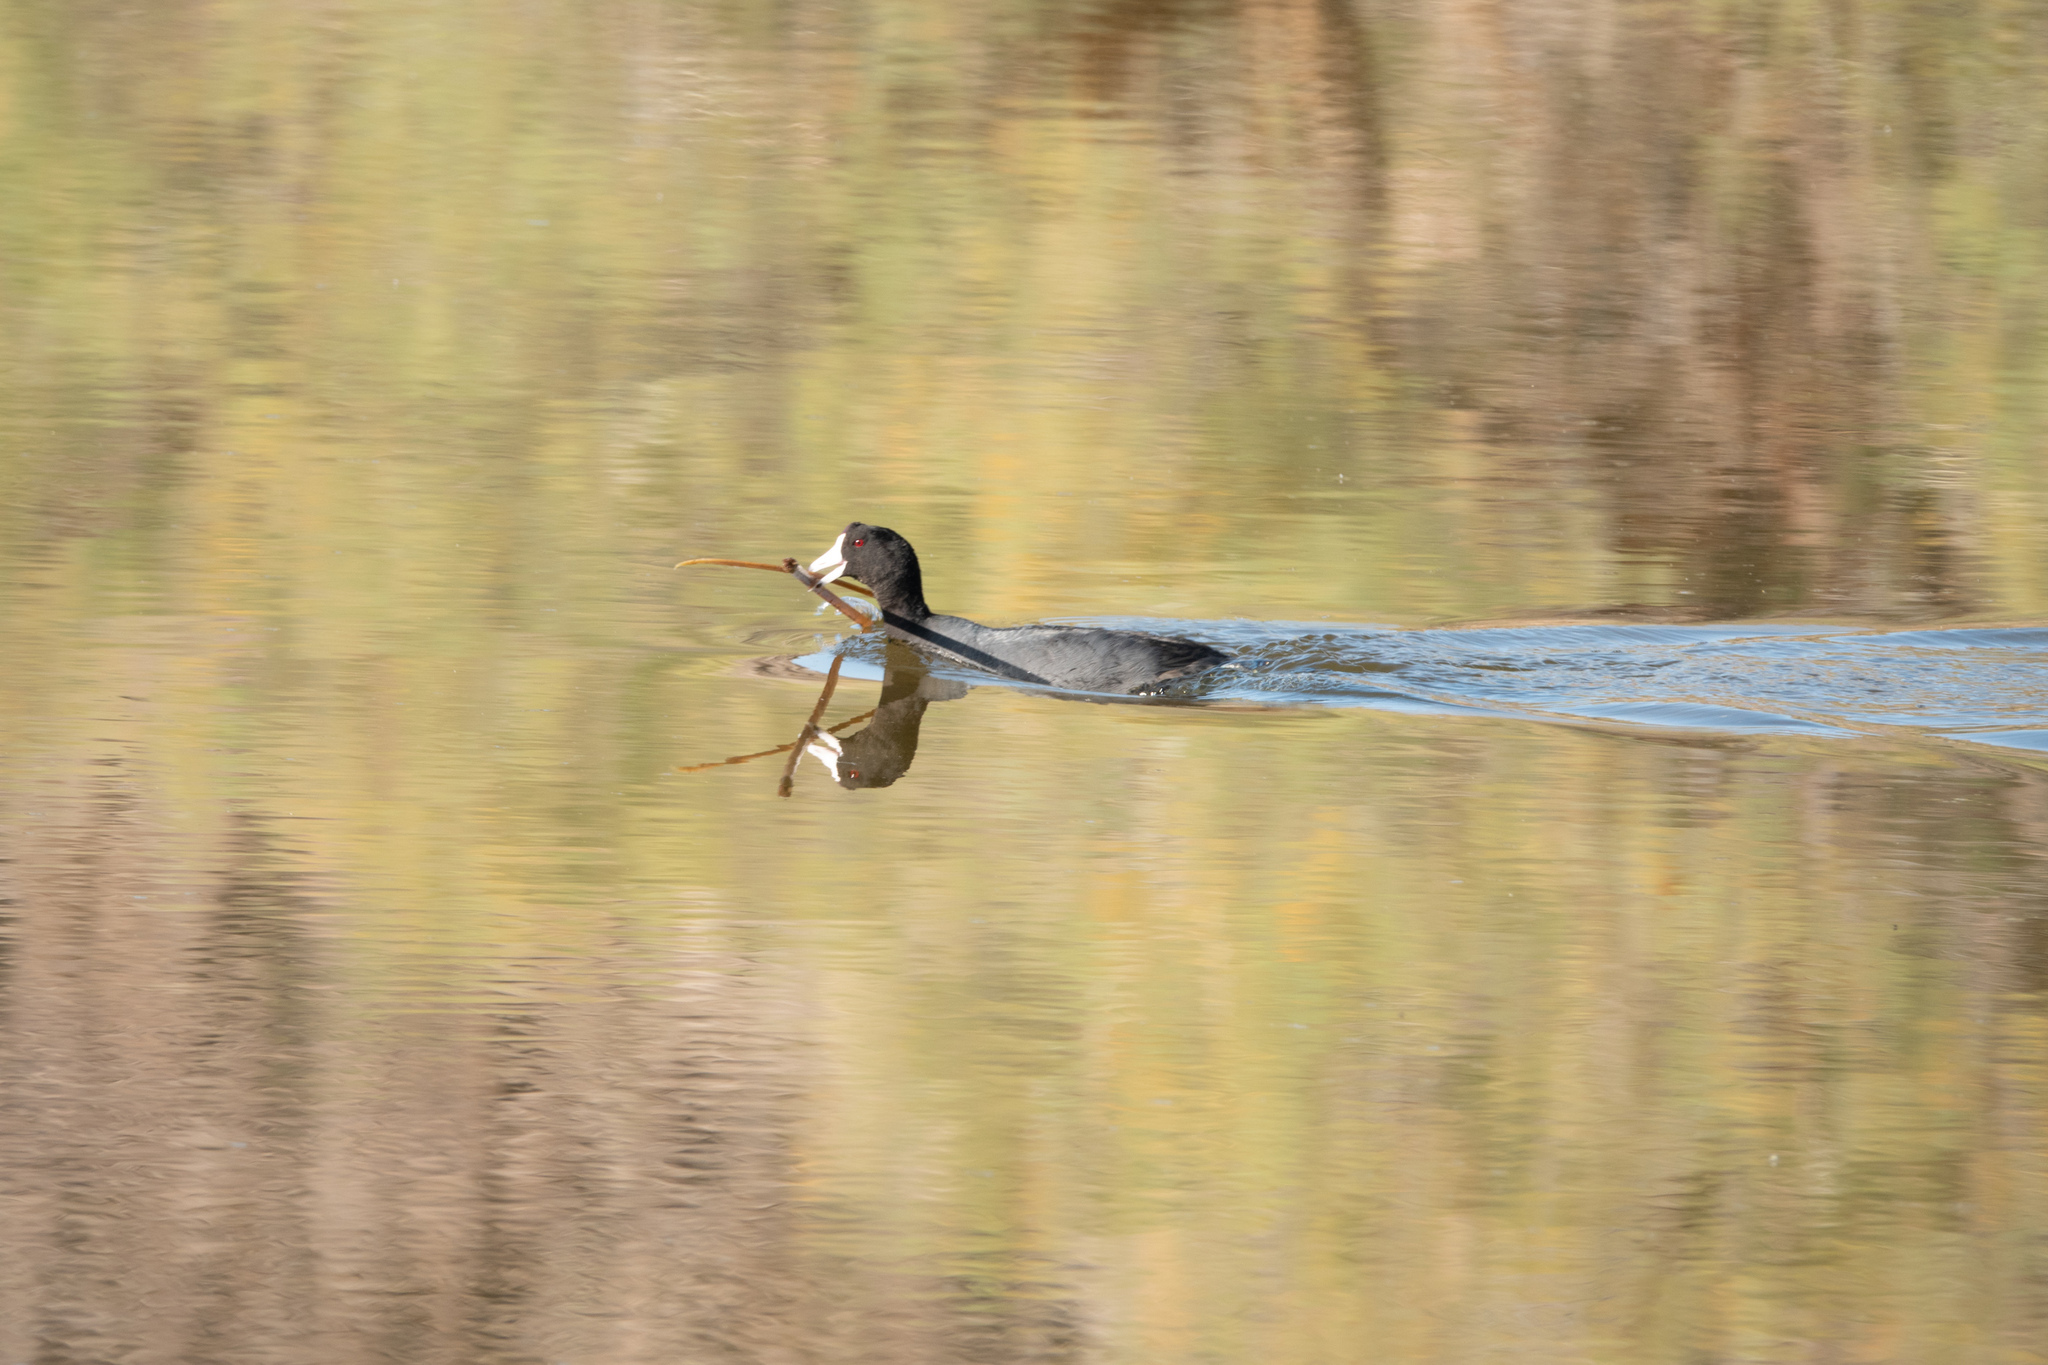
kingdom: Animalia
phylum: Chordata
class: Aves
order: Gruiformes
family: Rallidae
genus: Fulica
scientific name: Fulica americana
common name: American coot
